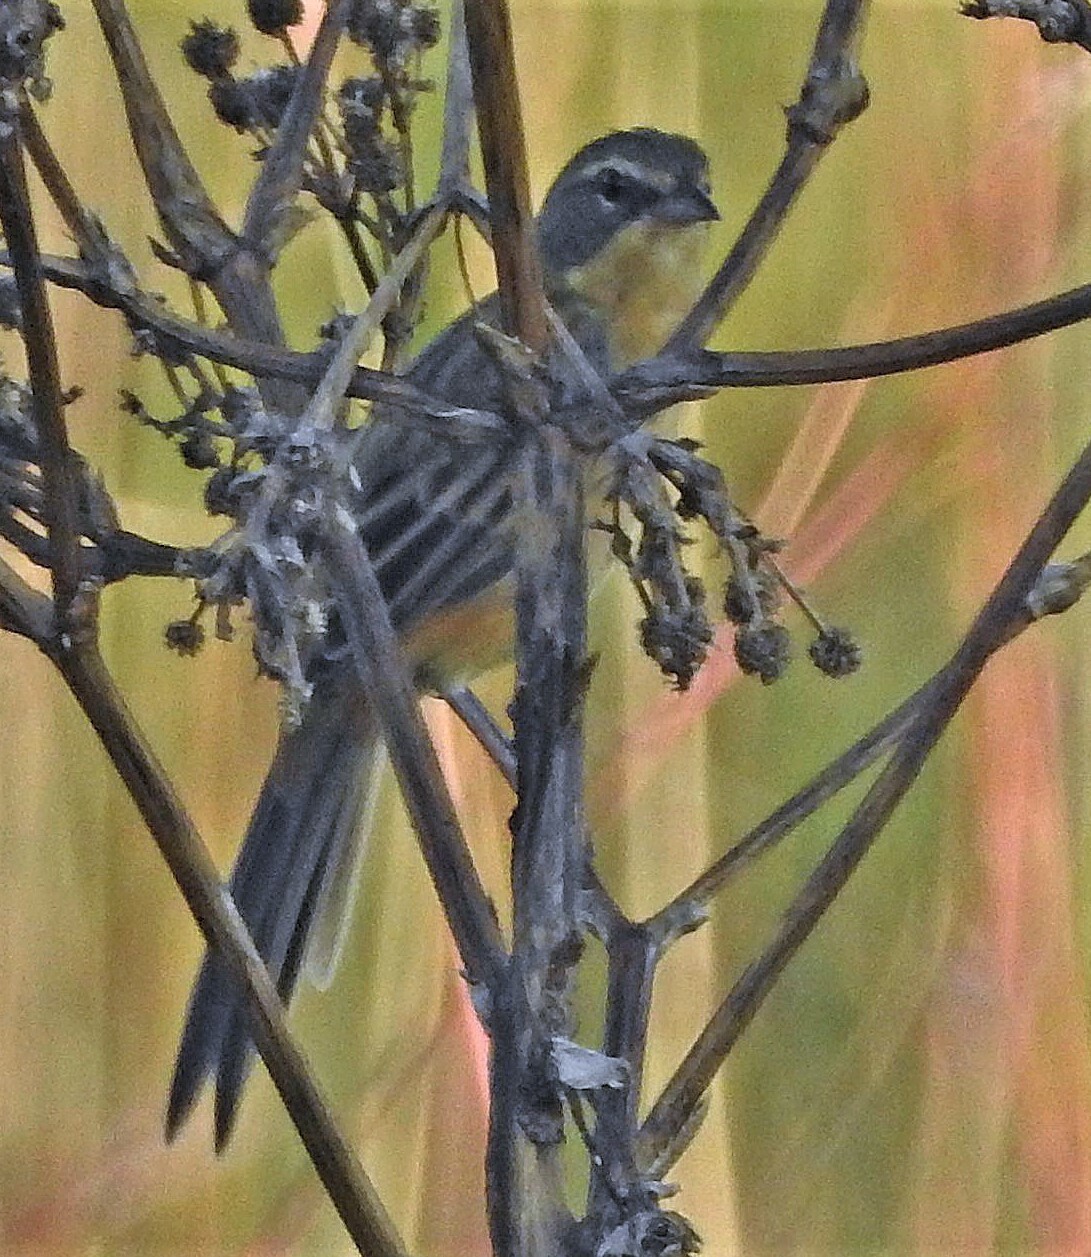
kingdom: Animalia
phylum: Chordata
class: Aves
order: Passeriformes
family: Thraupidae
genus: Donacospiza
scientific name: Donacospiza albifrons
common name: Long-tailed reed finch
